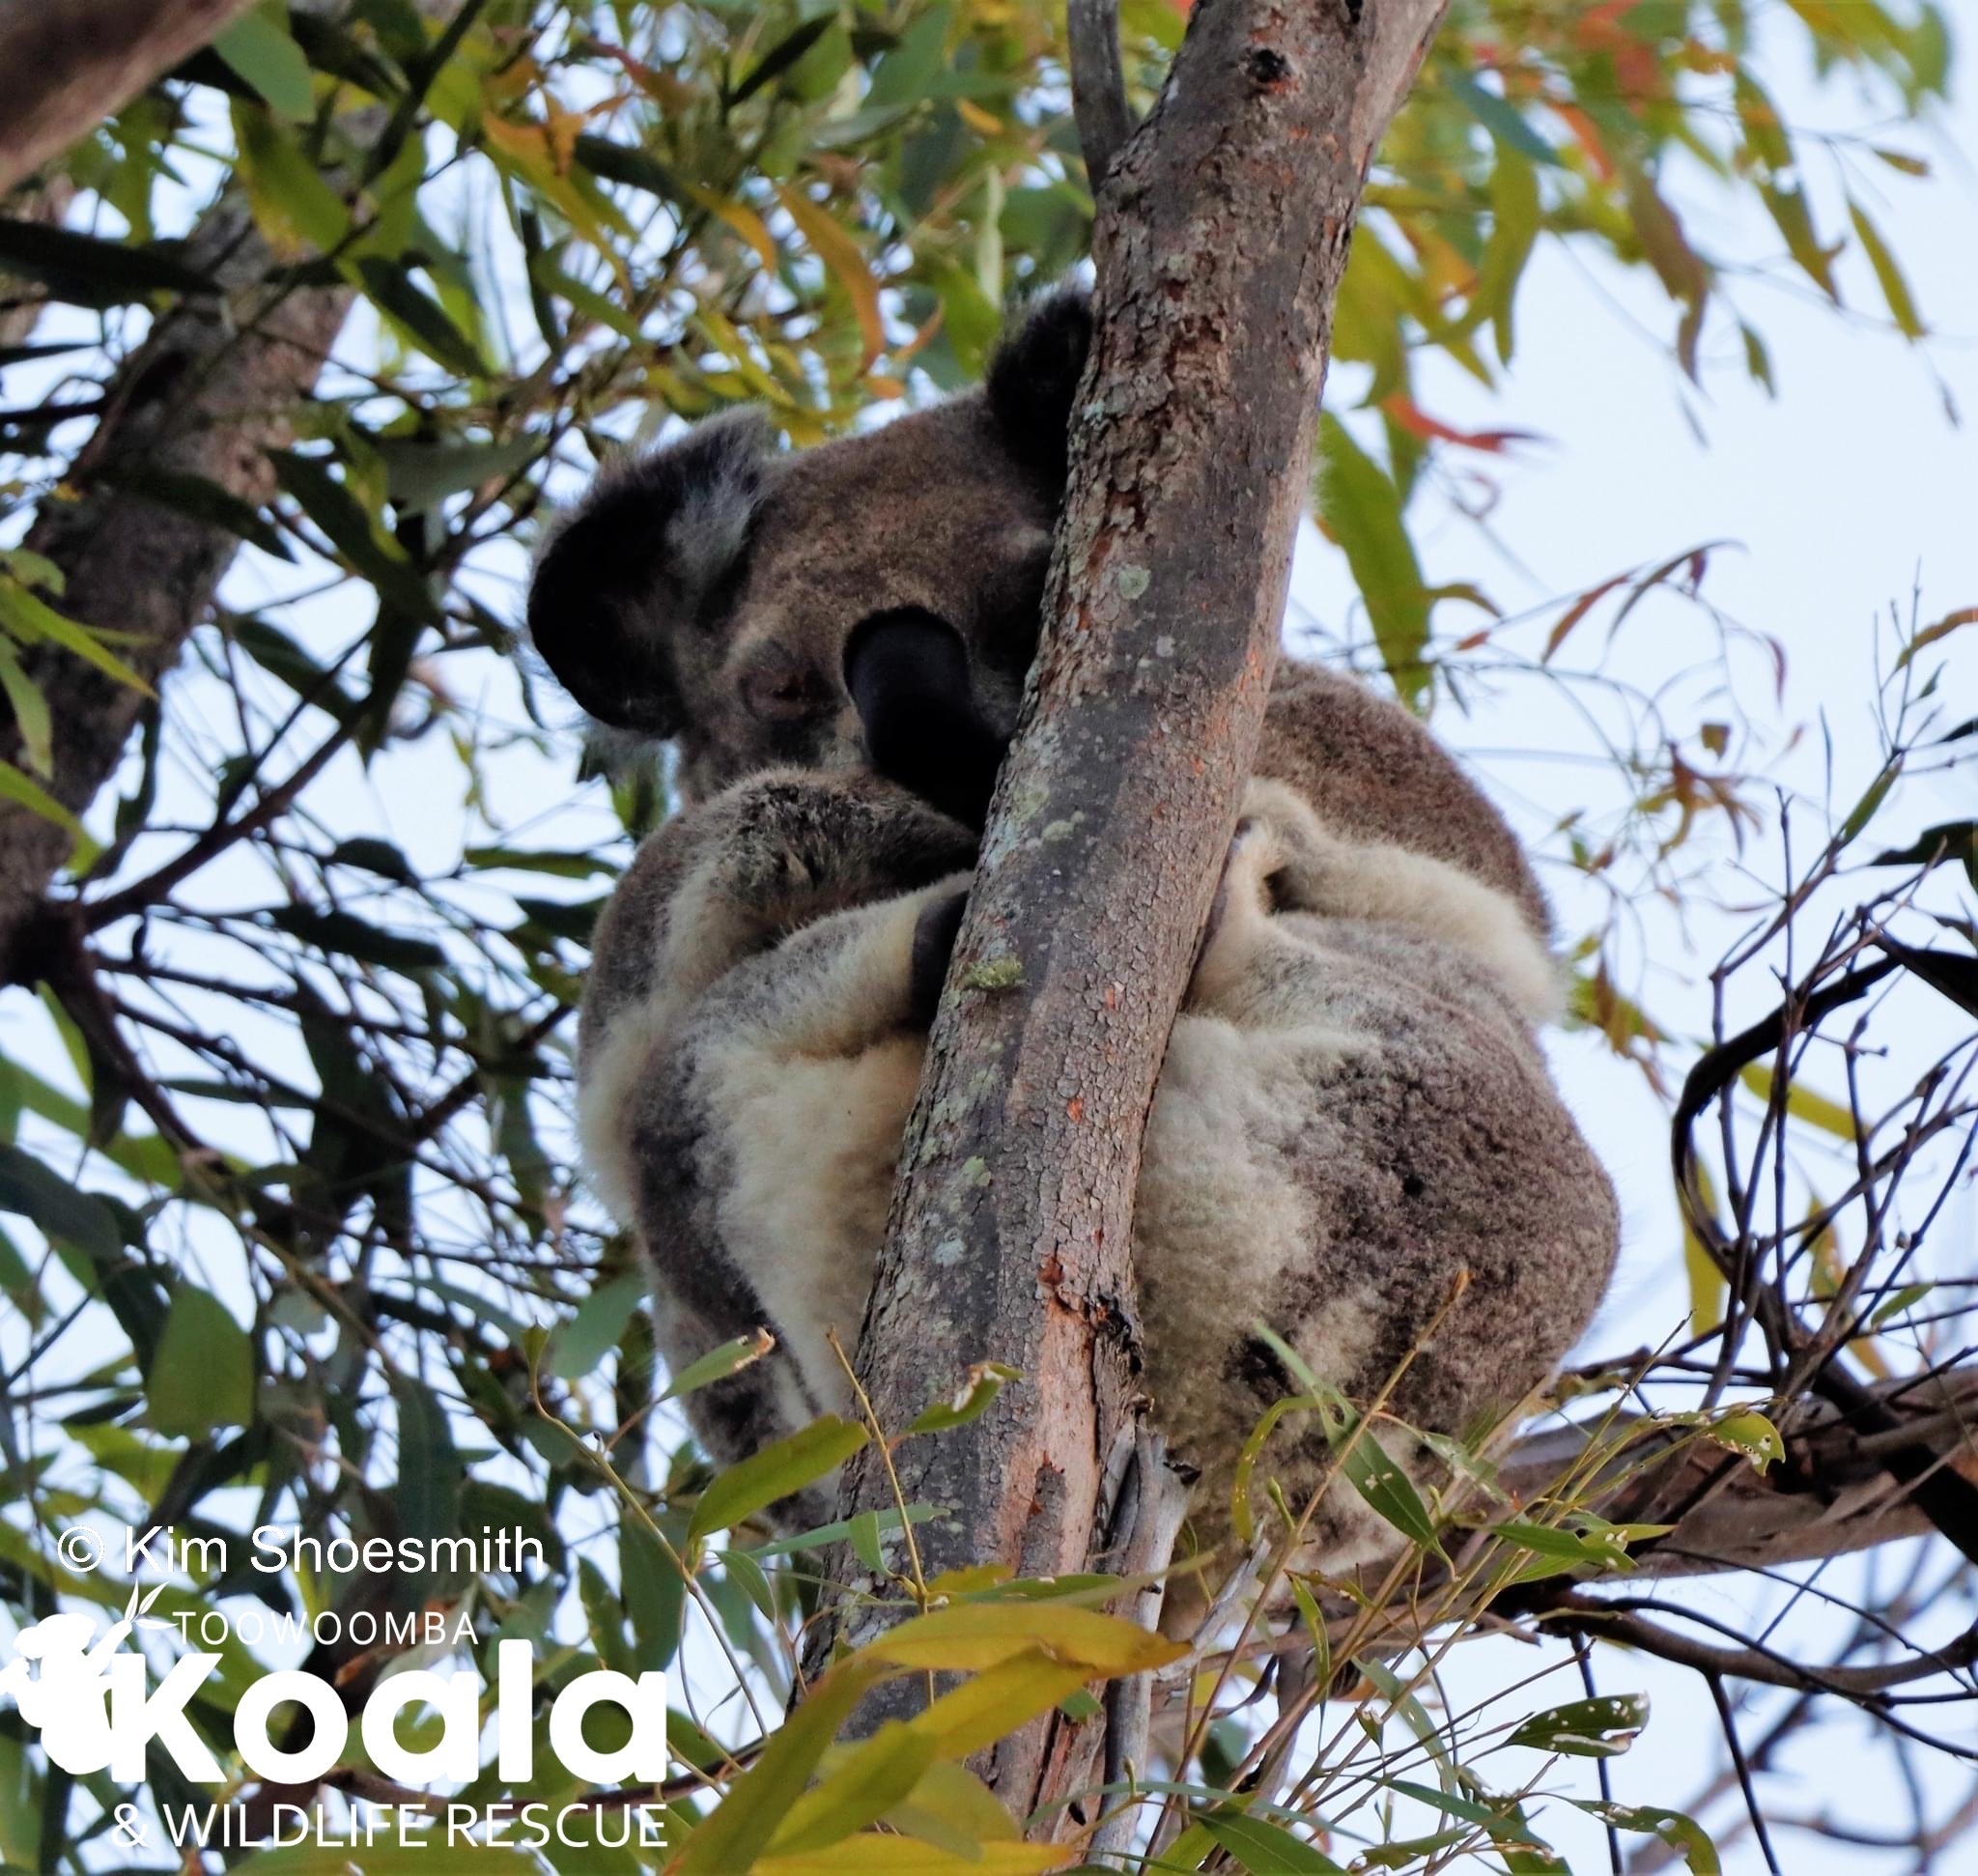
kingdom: Animalia
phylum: Chordata
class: Mammalia
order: Diprotodontia
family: Phascolarctidae
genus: Phascolarctos
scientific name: Phascolarctos cinereus
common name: Koala
